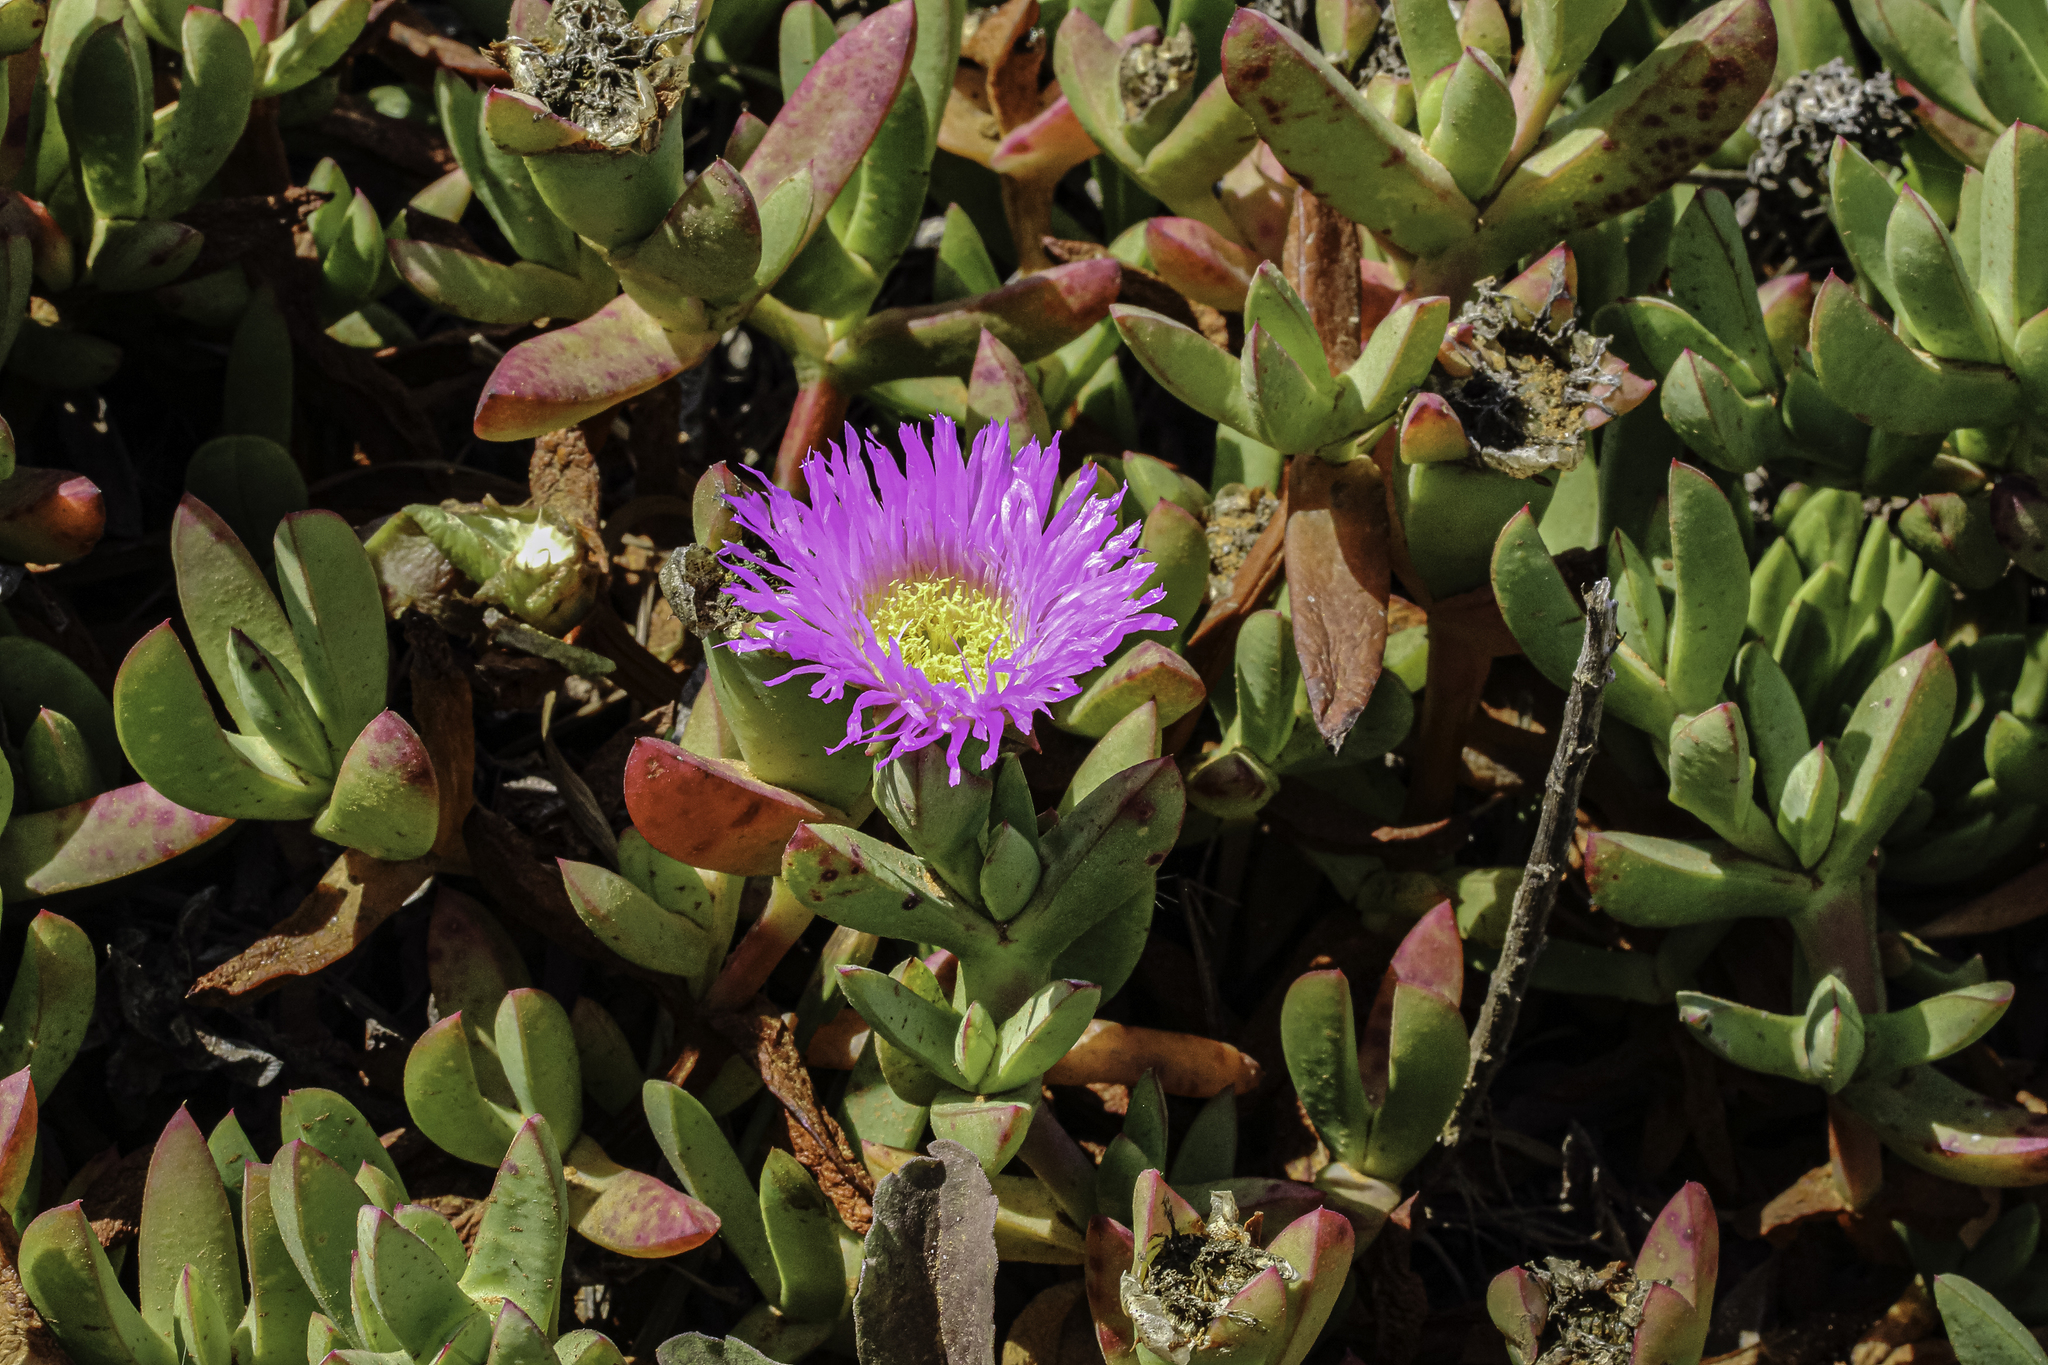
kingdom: Plantae
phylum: Tracheophyta
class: Magnoliopsida
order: Caryophyllales
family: Aizoaceae
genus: Carpobrotus
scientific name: Carpobrotus chilensis
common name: Sea fig
